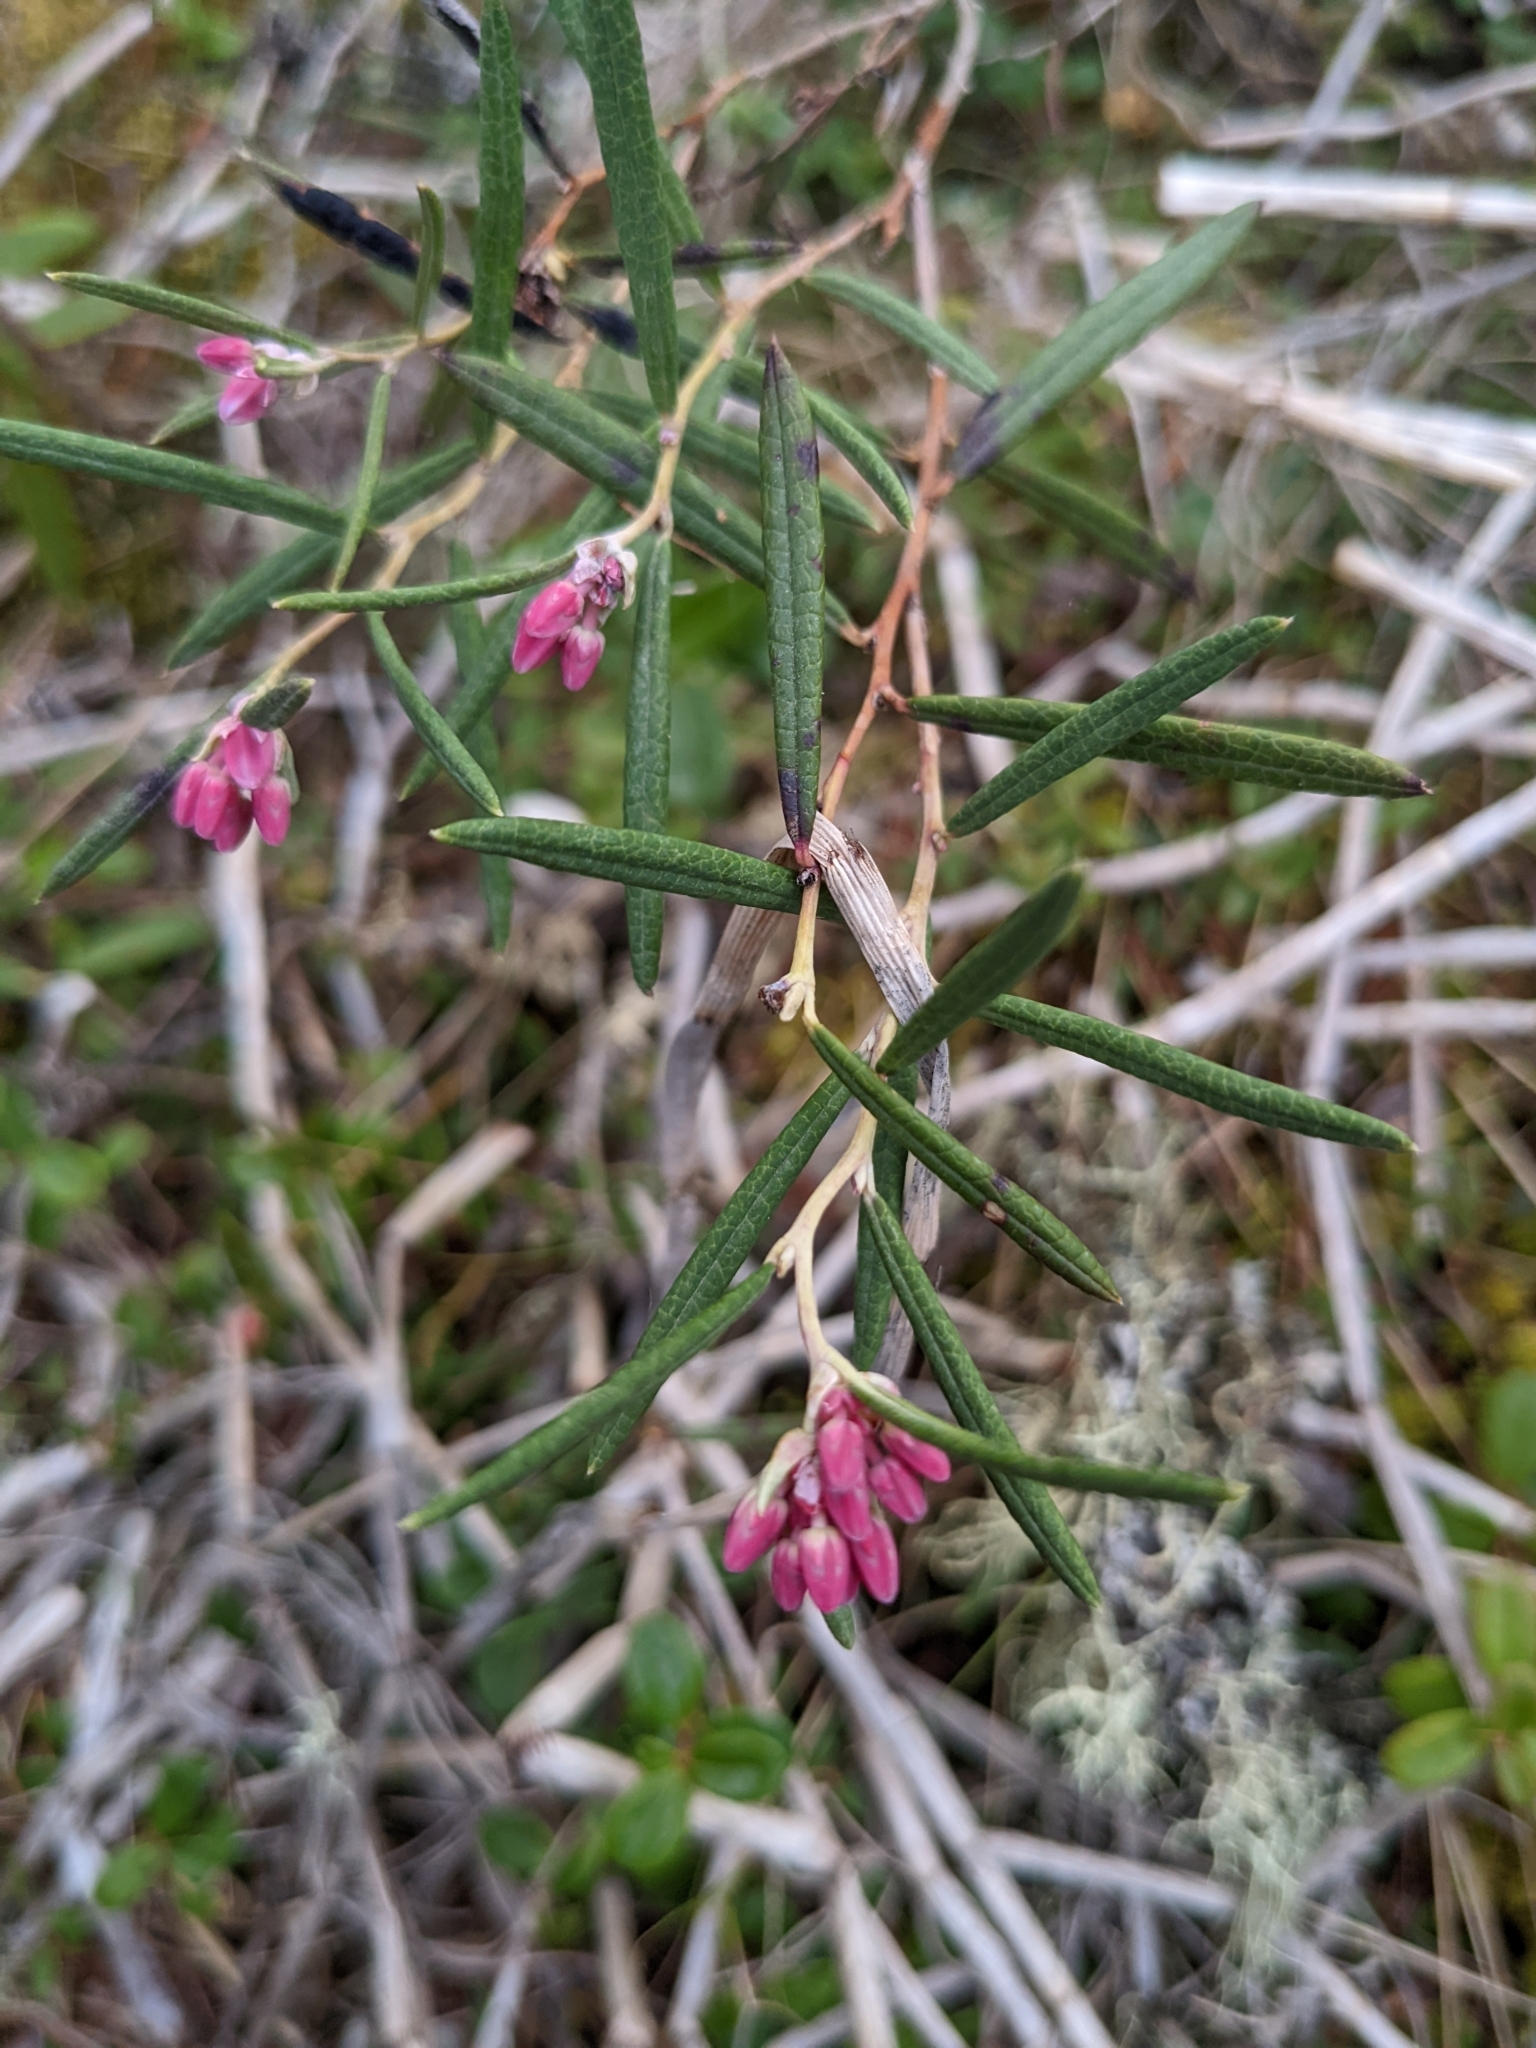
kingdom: Plantae
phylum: Tracheophyta
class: Magnoliopsida
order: Ericales
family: Ericaceae
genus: Andromeda
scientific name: Andromeda polifolia
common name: Bog-rosemary
